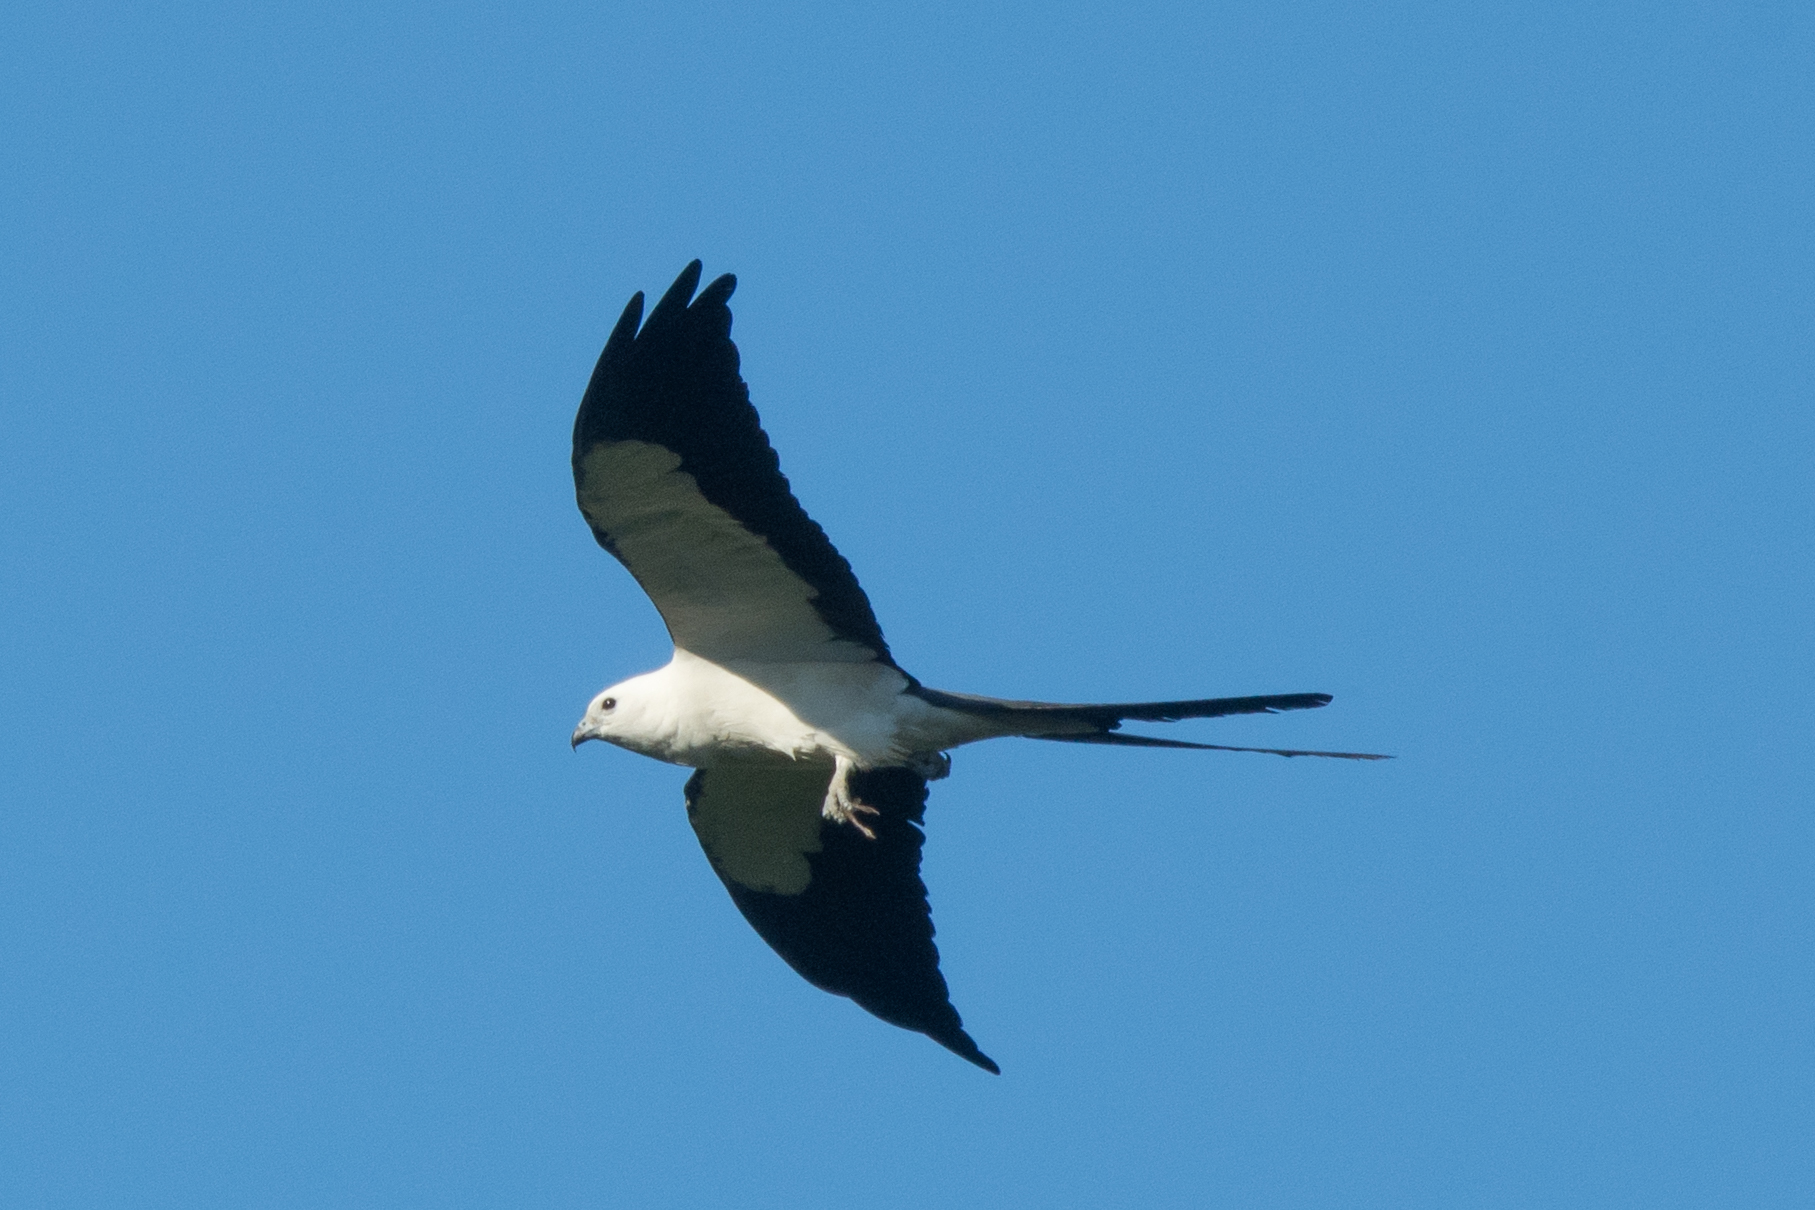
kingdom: Animalia
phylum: Chordata
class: Aves
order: Accipitriformes
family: Accipitridae
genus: Elanoides
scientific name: Elanoides forficatus
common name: Swallow-tailed kite
